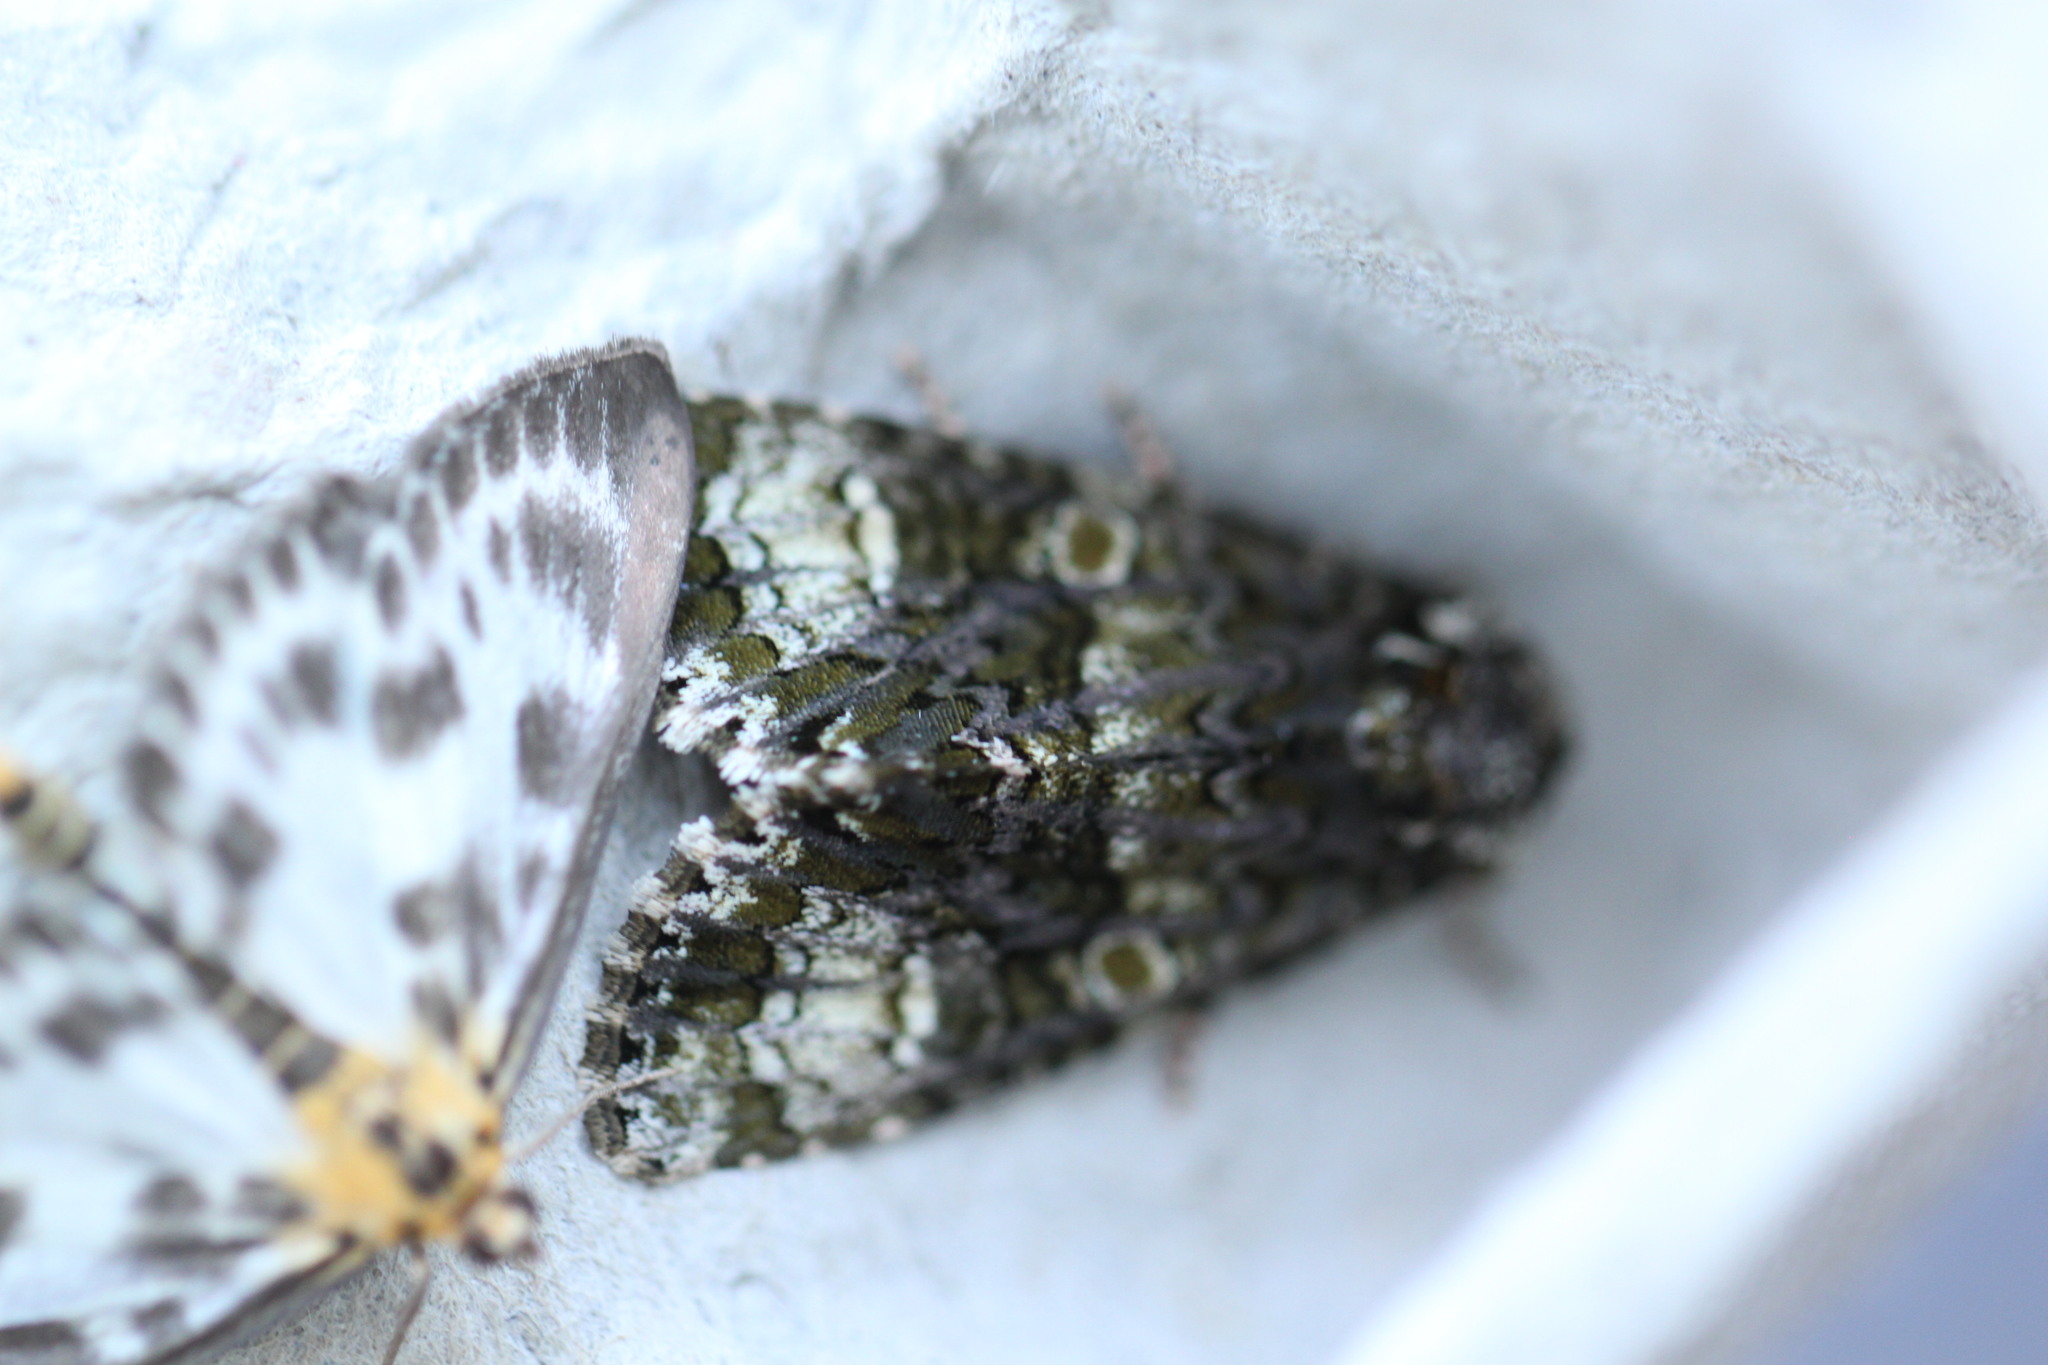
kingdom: Animalia
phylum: Arthropoda
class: Insecta
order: Lepidoptera
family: Crambidae
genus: Anania
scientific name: Anania hortulata
